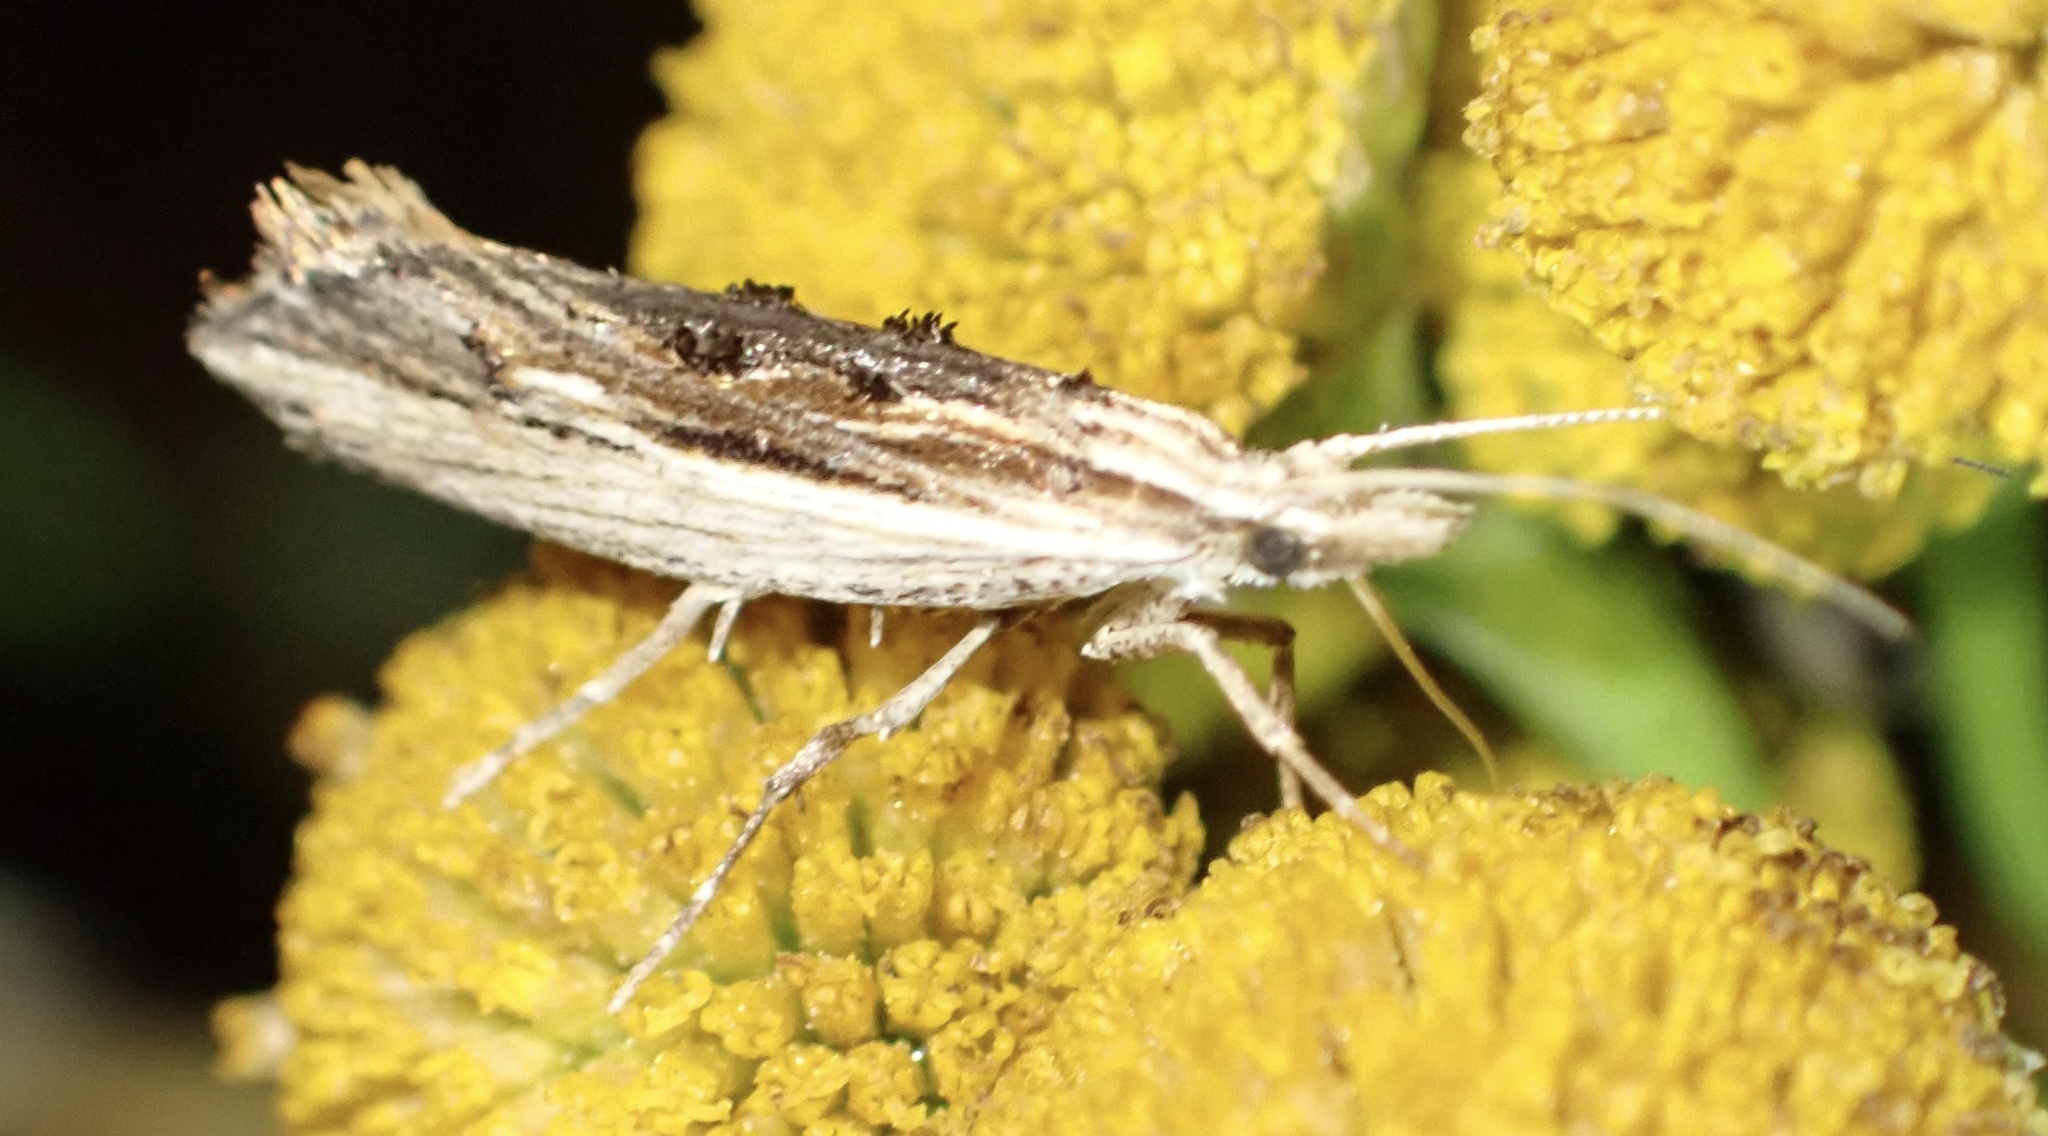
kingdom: Animalia
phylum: Arthropoda
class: Insecta
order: Lepidoptera
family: Ypsolophidae
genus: Ypsolopha
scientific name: Ypsolopha scabrella
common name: Wainscot smudge
